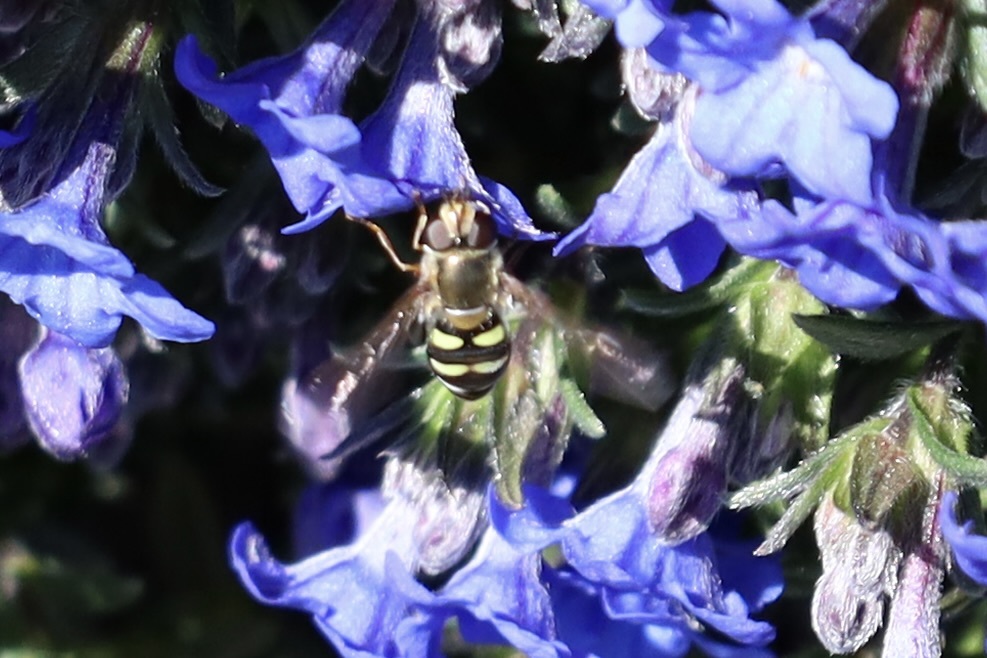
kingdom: Animalia
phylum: Arthropoda
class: Insecta
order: Diptera
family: Syrphidae
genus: Eupeodes
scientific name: Eupeodes fumipennis
